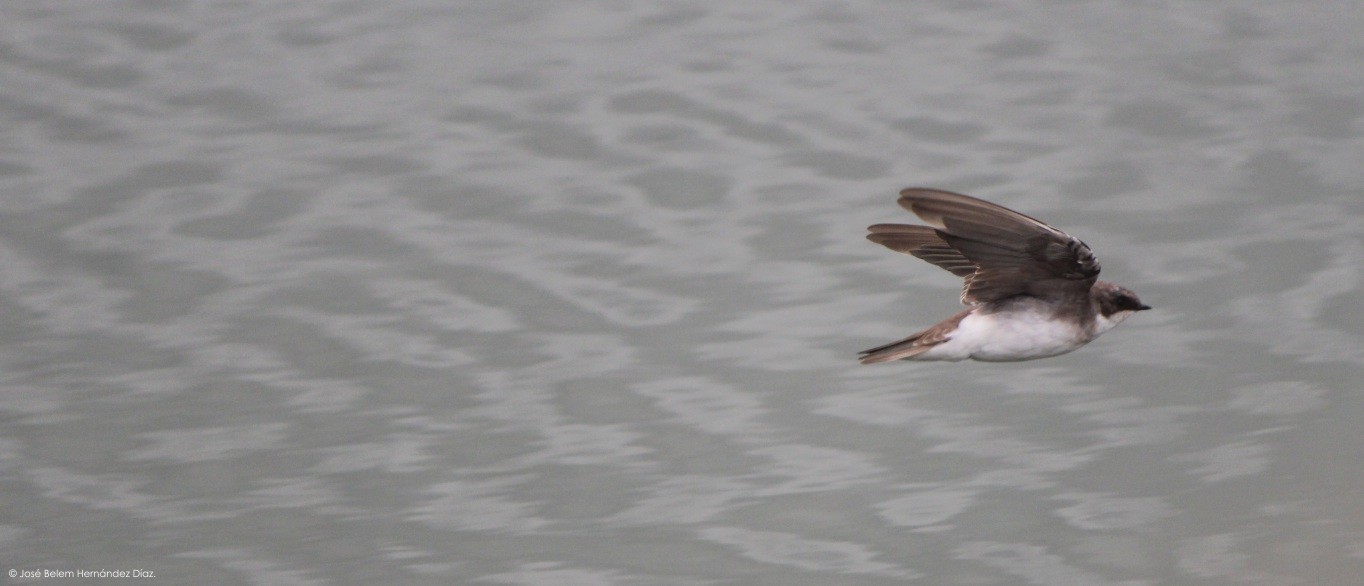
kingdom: Animalia
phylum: Chordata
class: Aves
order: Passeriformes
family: Hirundinidae
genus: Riparia
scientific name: Riparia riparia
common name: Sand martin
